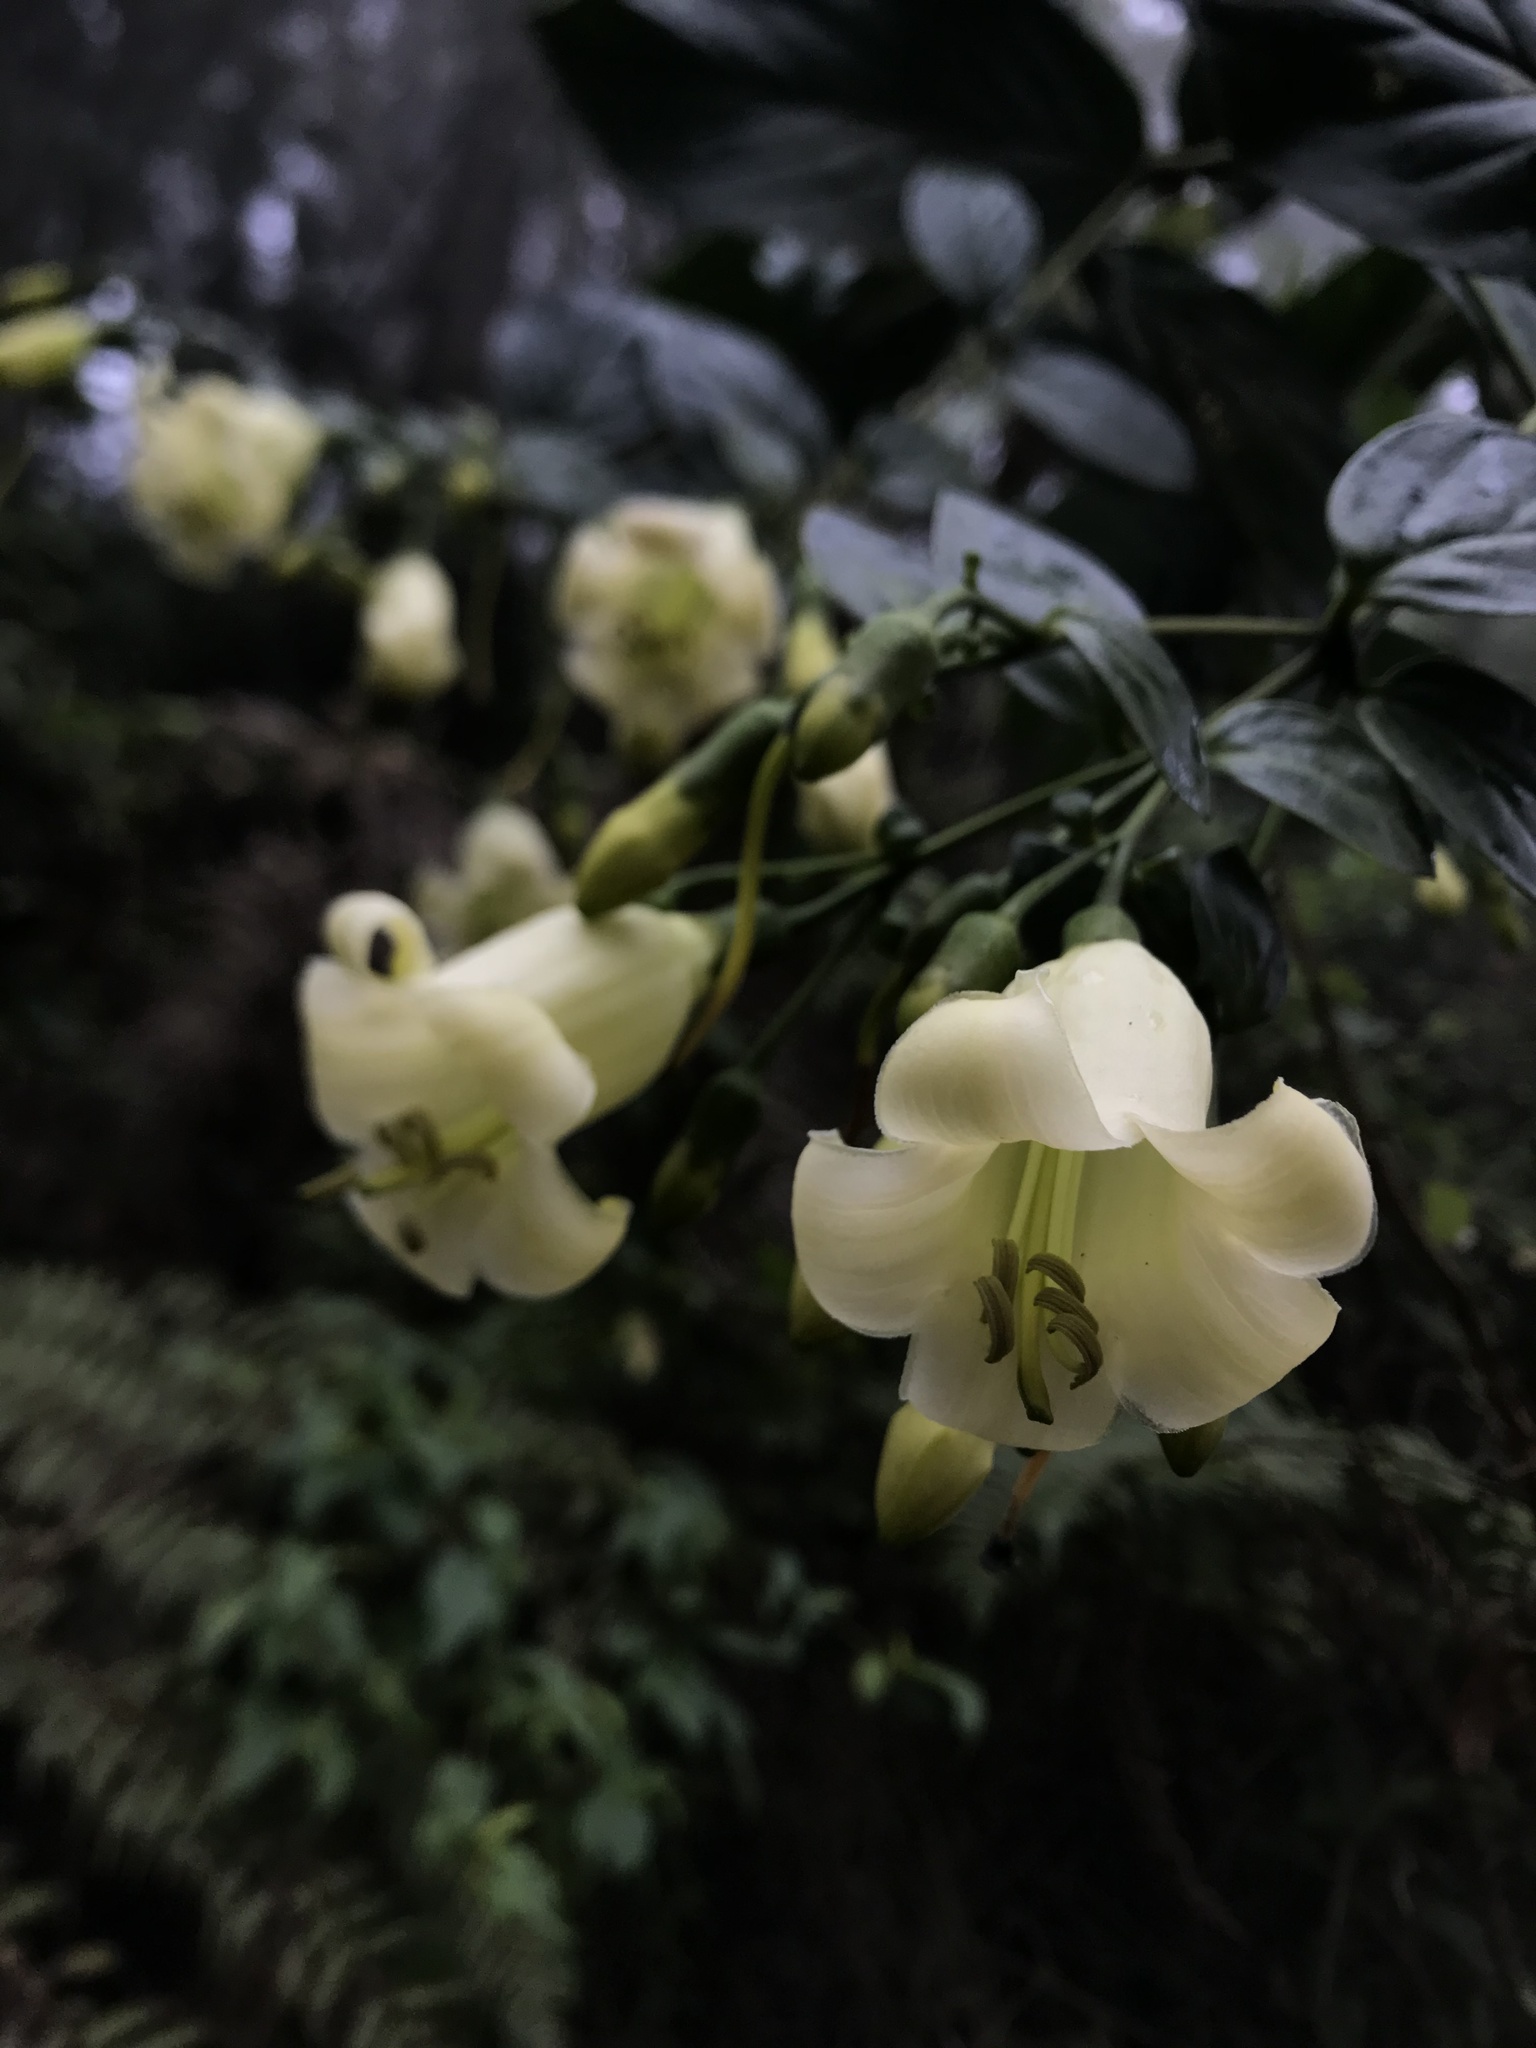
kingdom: Plantae
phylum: Tracheophyta
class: Magnoliopsida
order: Gentianales
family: Gentianaceae
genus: Macrocarpaea
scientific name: Macrocarpaea nicotianifolia
